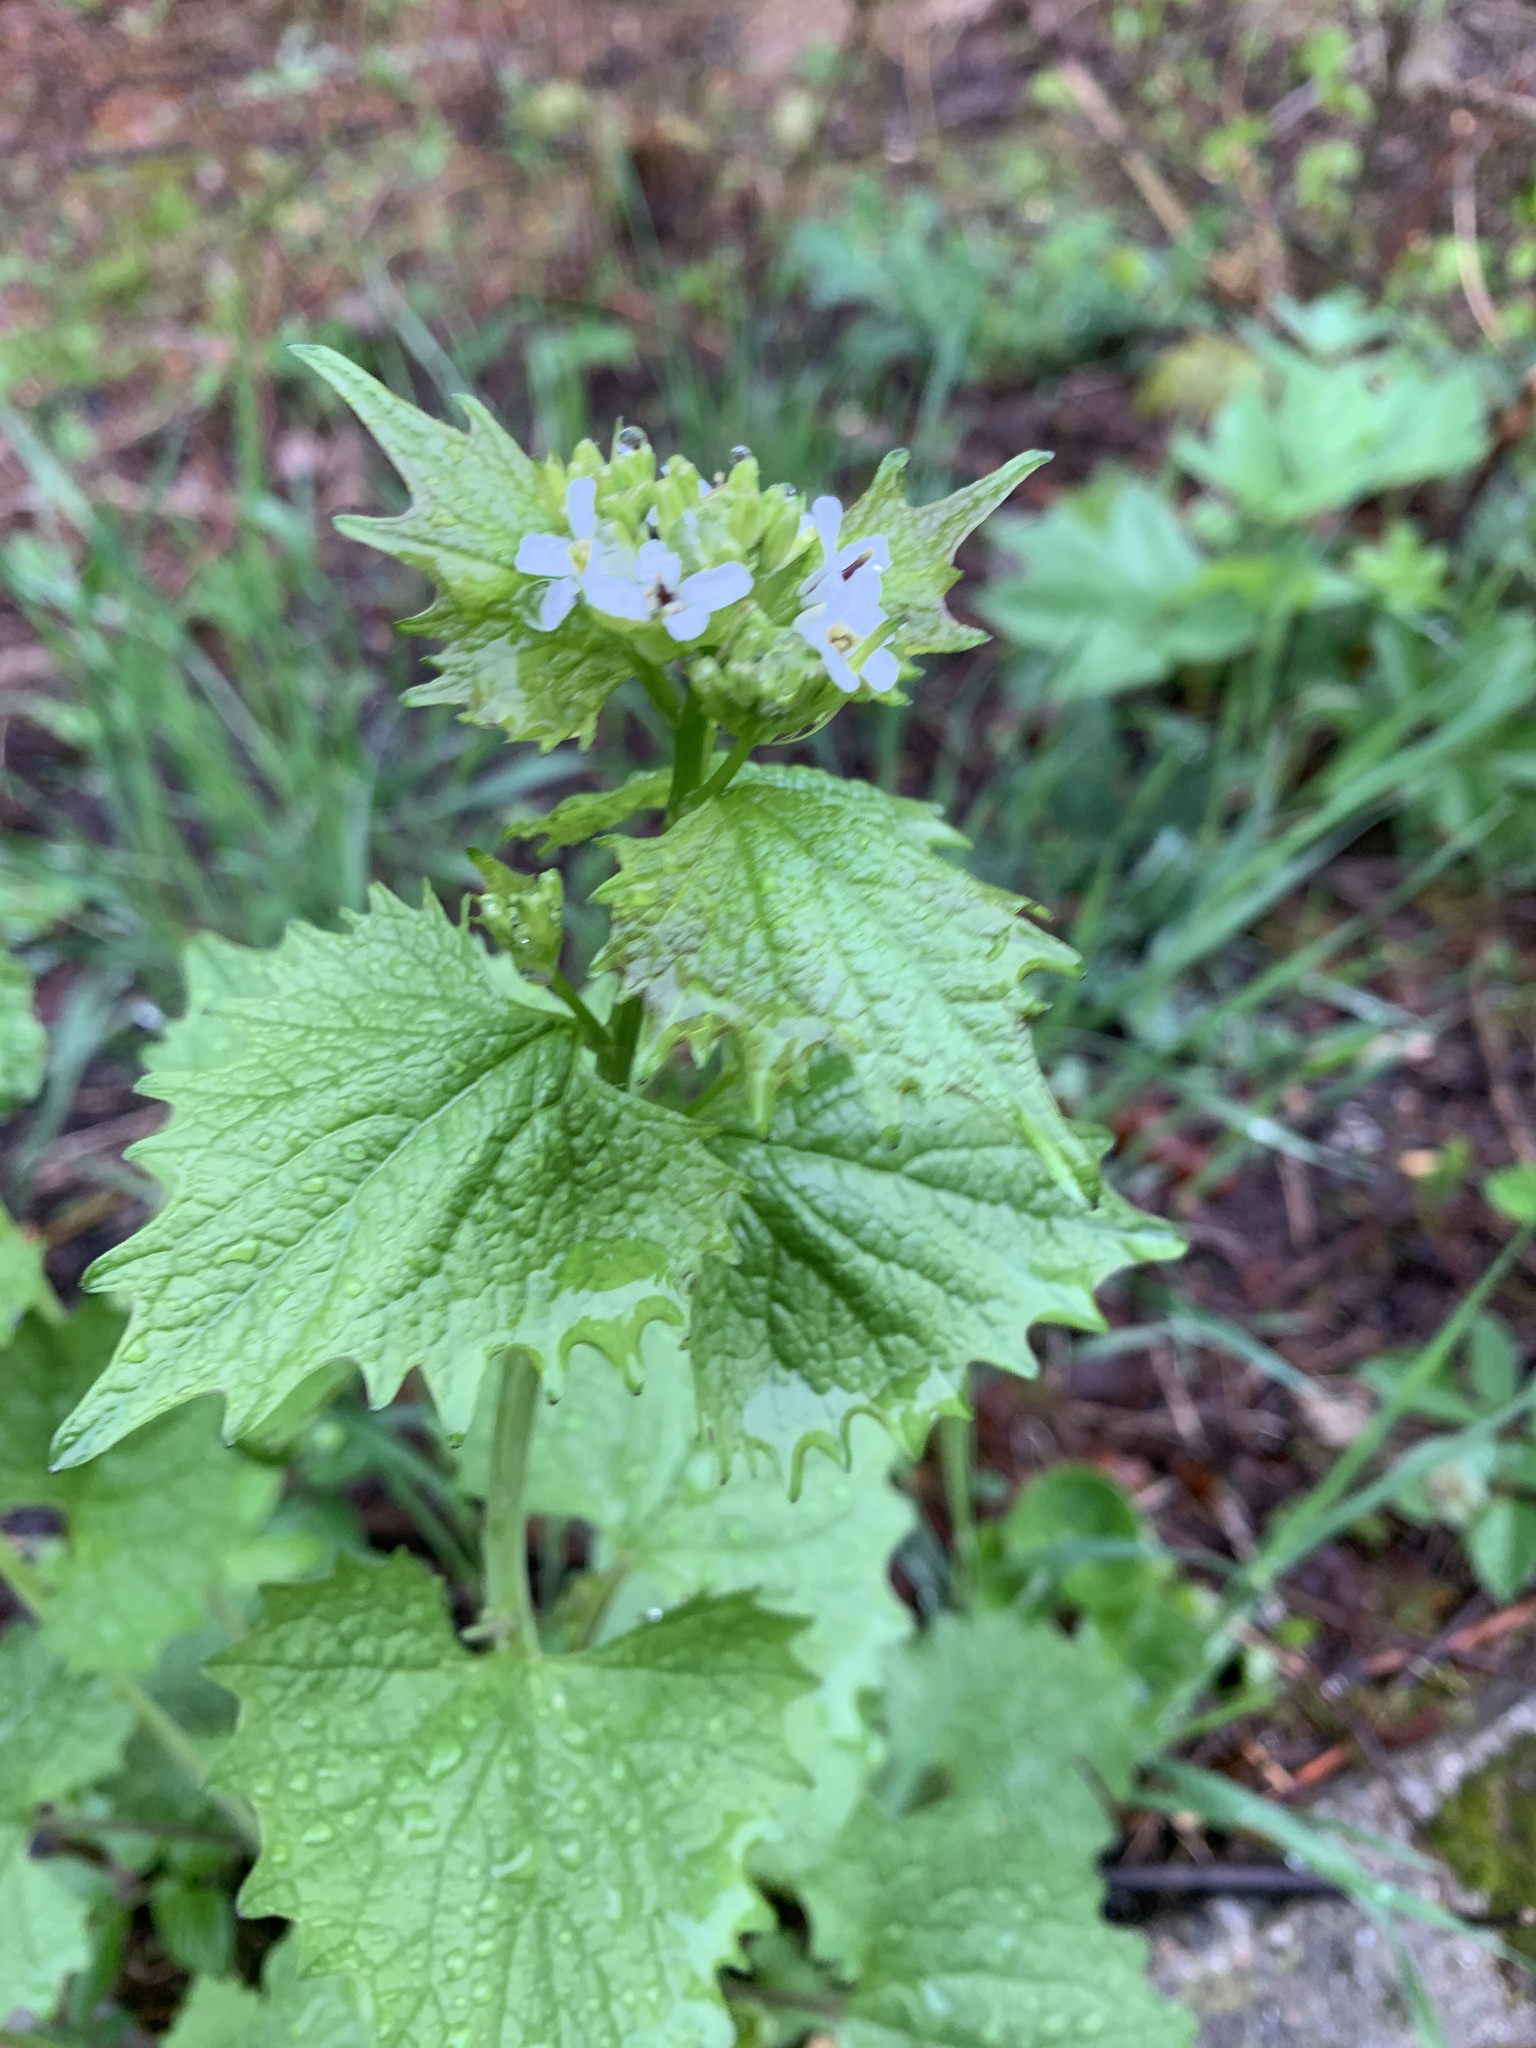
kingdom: Plantae
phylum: Tracheophyta
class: Magnoliopsida
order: Brassicales
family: Brassicaceae
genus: Alliaria
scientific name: Alliaria petiolata
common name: Garlic mustard
